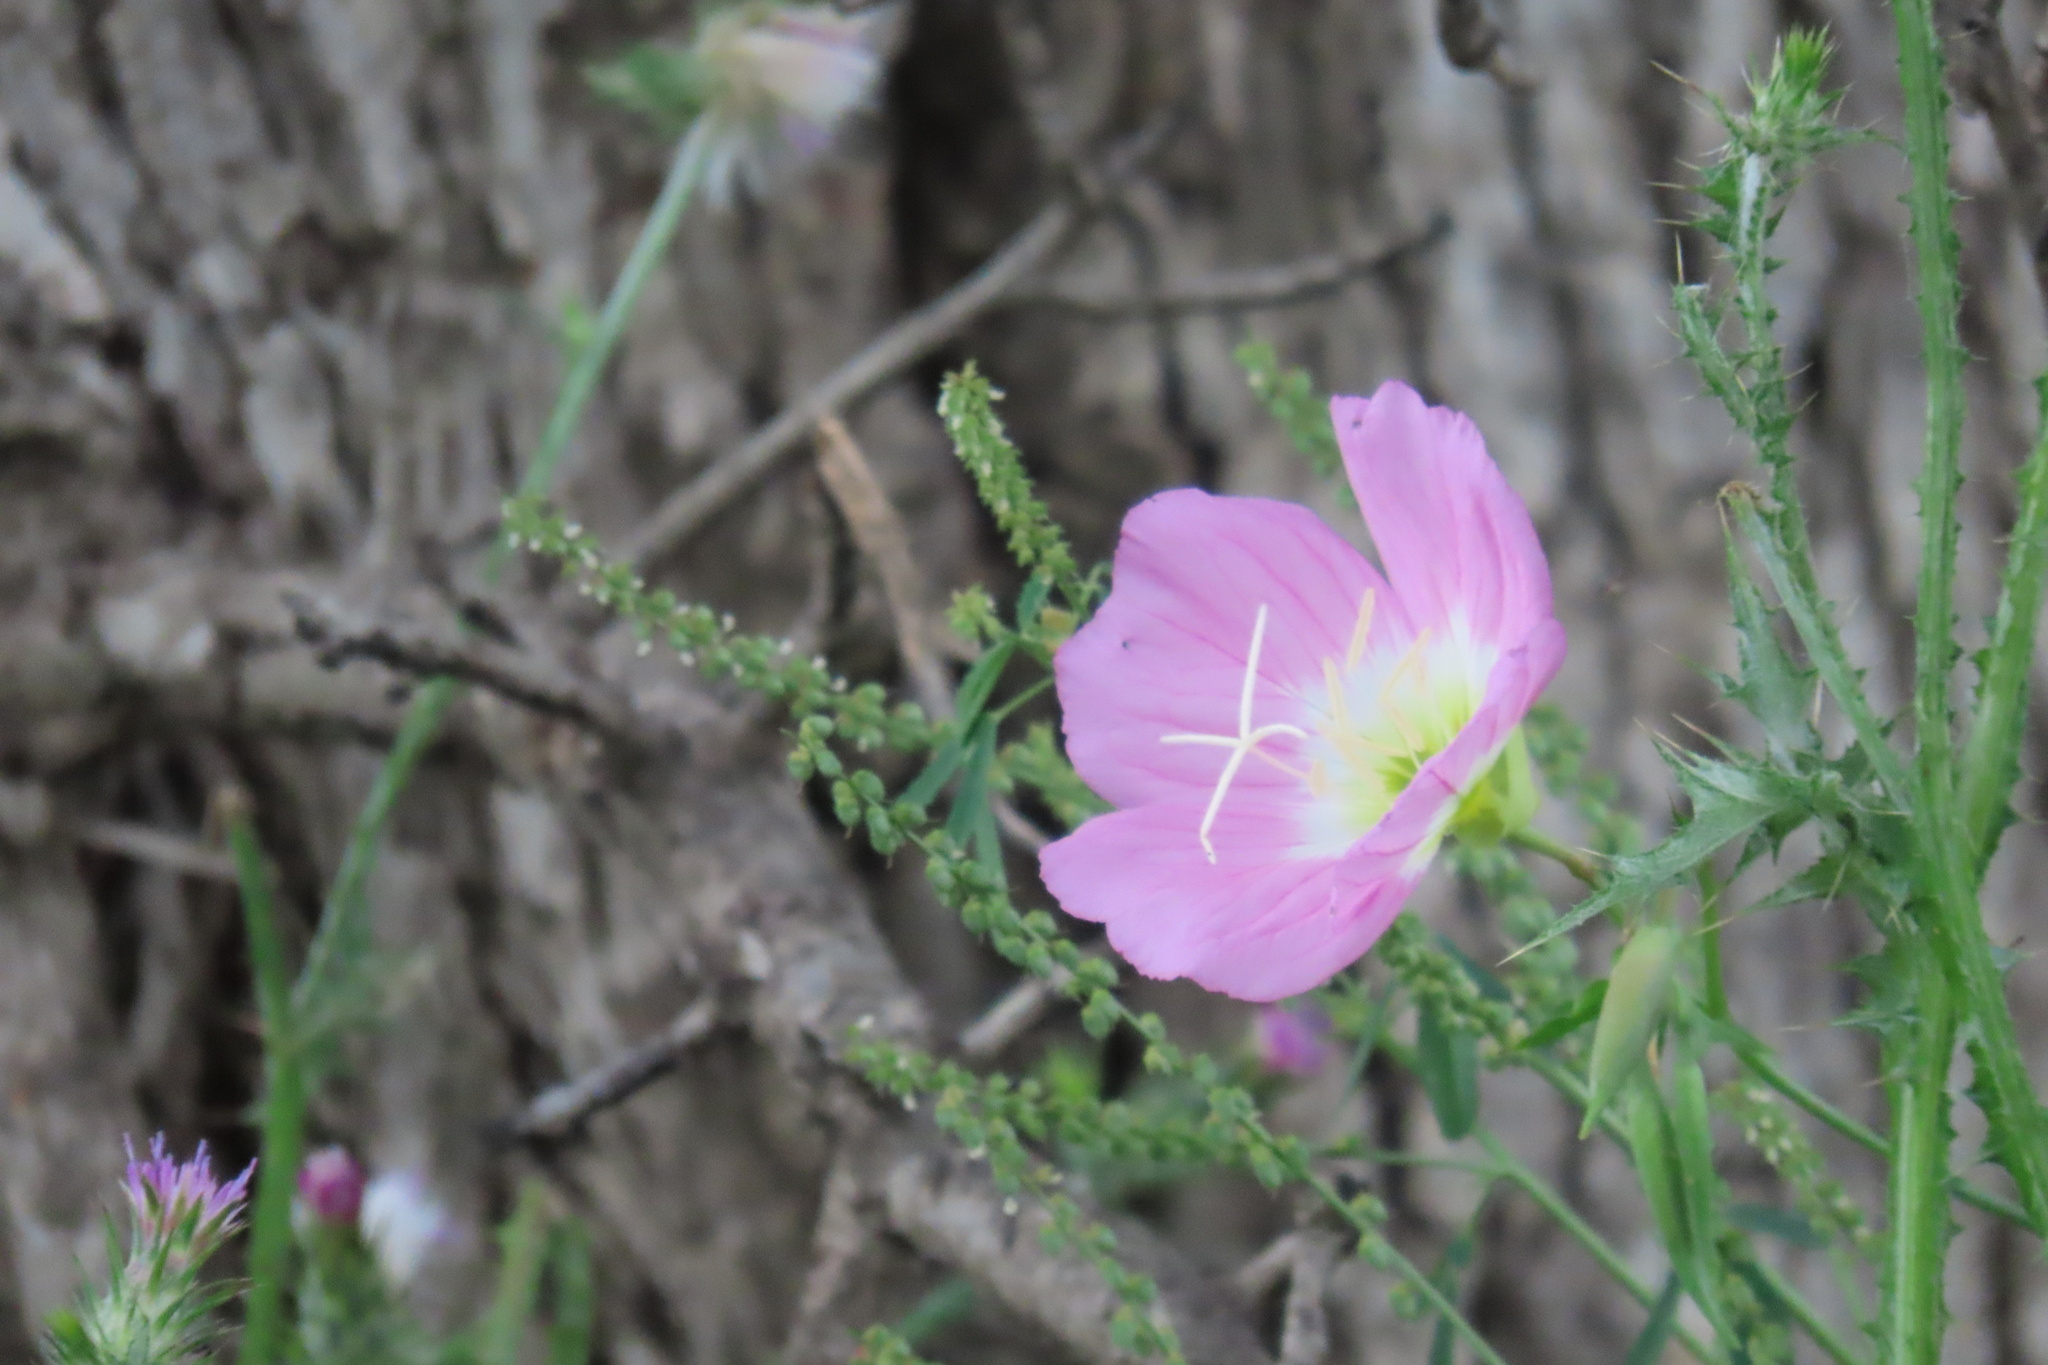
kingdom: Plantae
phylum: Tracheophyta
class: Magnoliopsida
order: Myrtales
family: Onagraceae
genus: Oenothera
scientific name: Oenothera speciosa
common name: White evening-primrose
